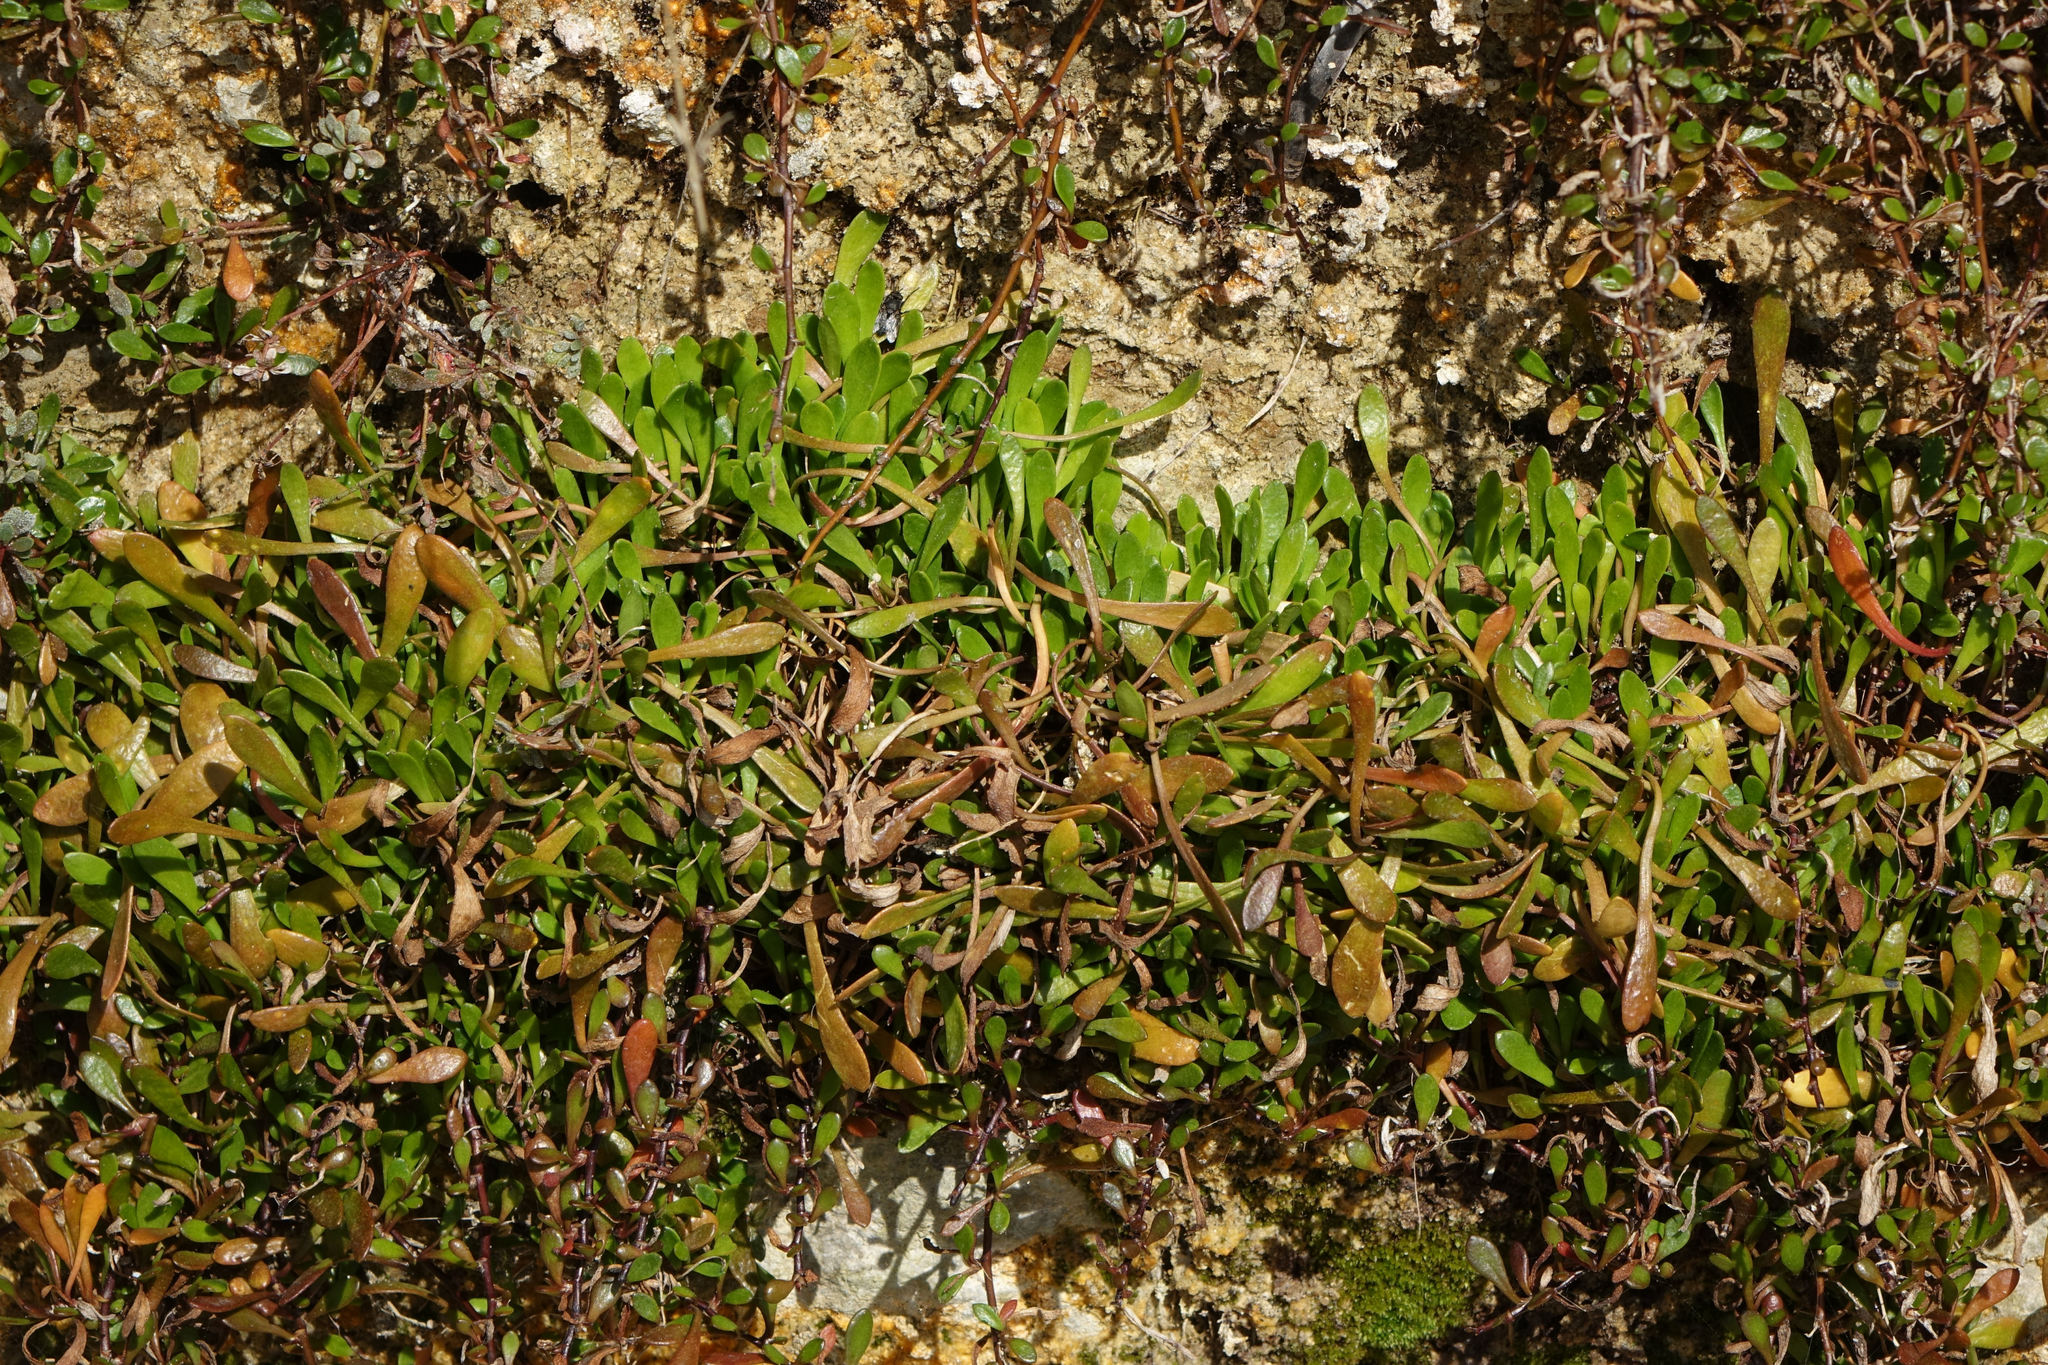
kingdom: Plantae
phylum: Tracheophyta
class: Magnoliopsida
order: Asterales
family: Goodeniaceae
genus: Goodenia
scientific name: Goodenia radicans
